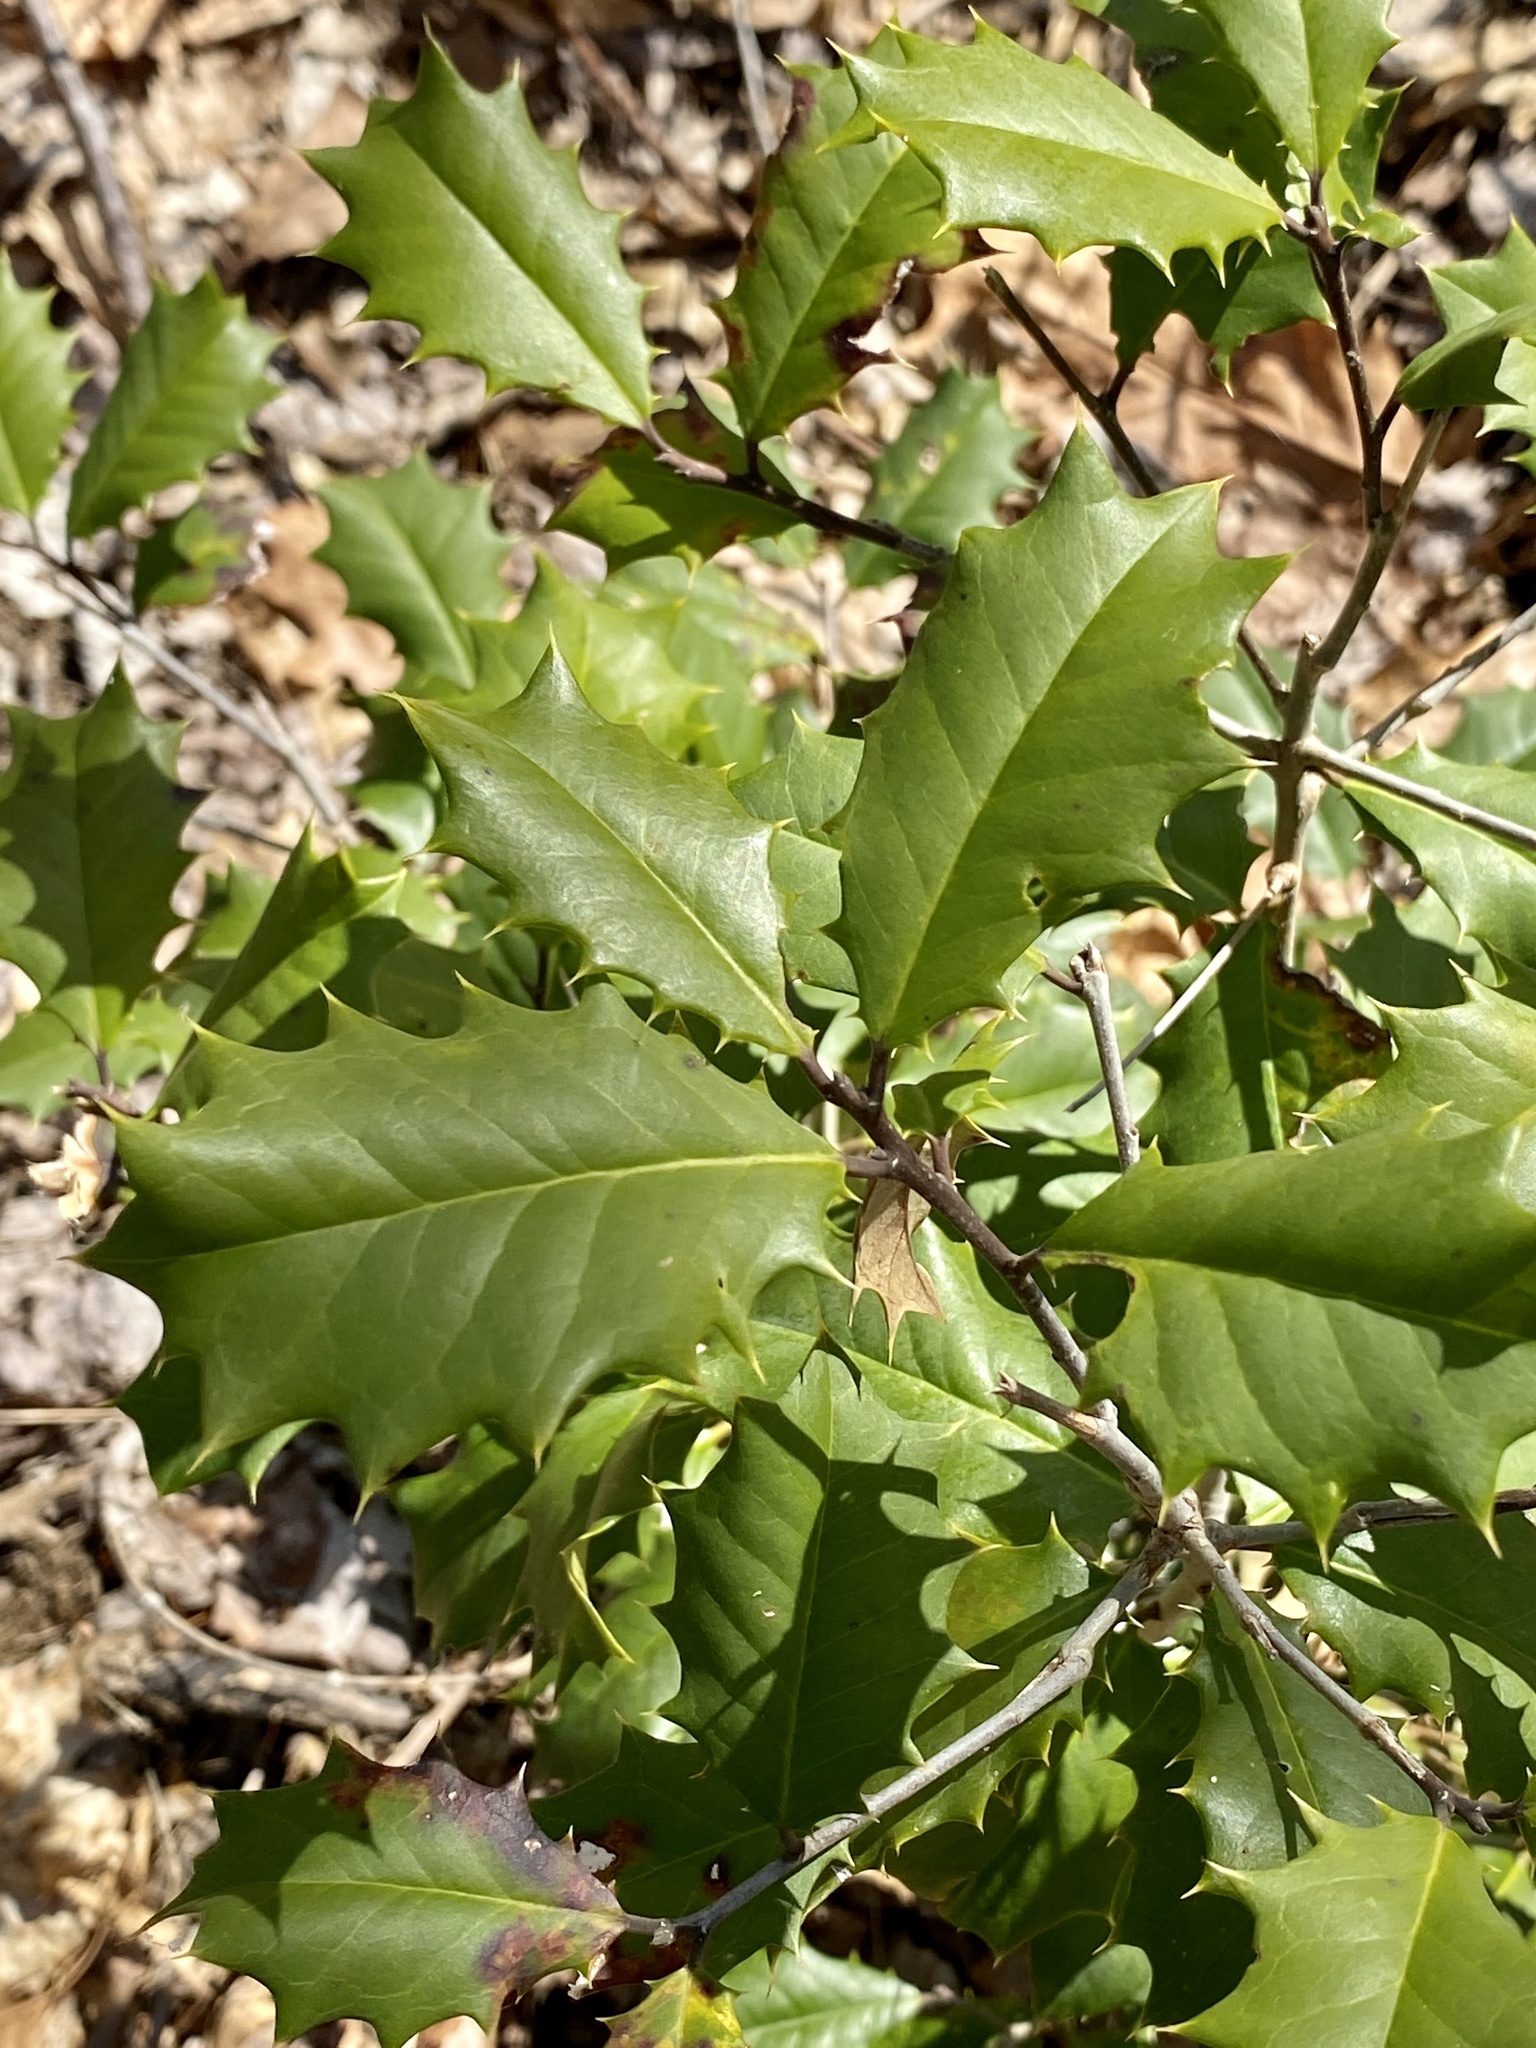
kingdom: Plantae
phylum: Tracheophyta
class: Magnoliopsida
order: Aquifoliales
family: Aquifoliaceae
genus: Ilex
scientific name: Ilex opaca
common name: American holly
